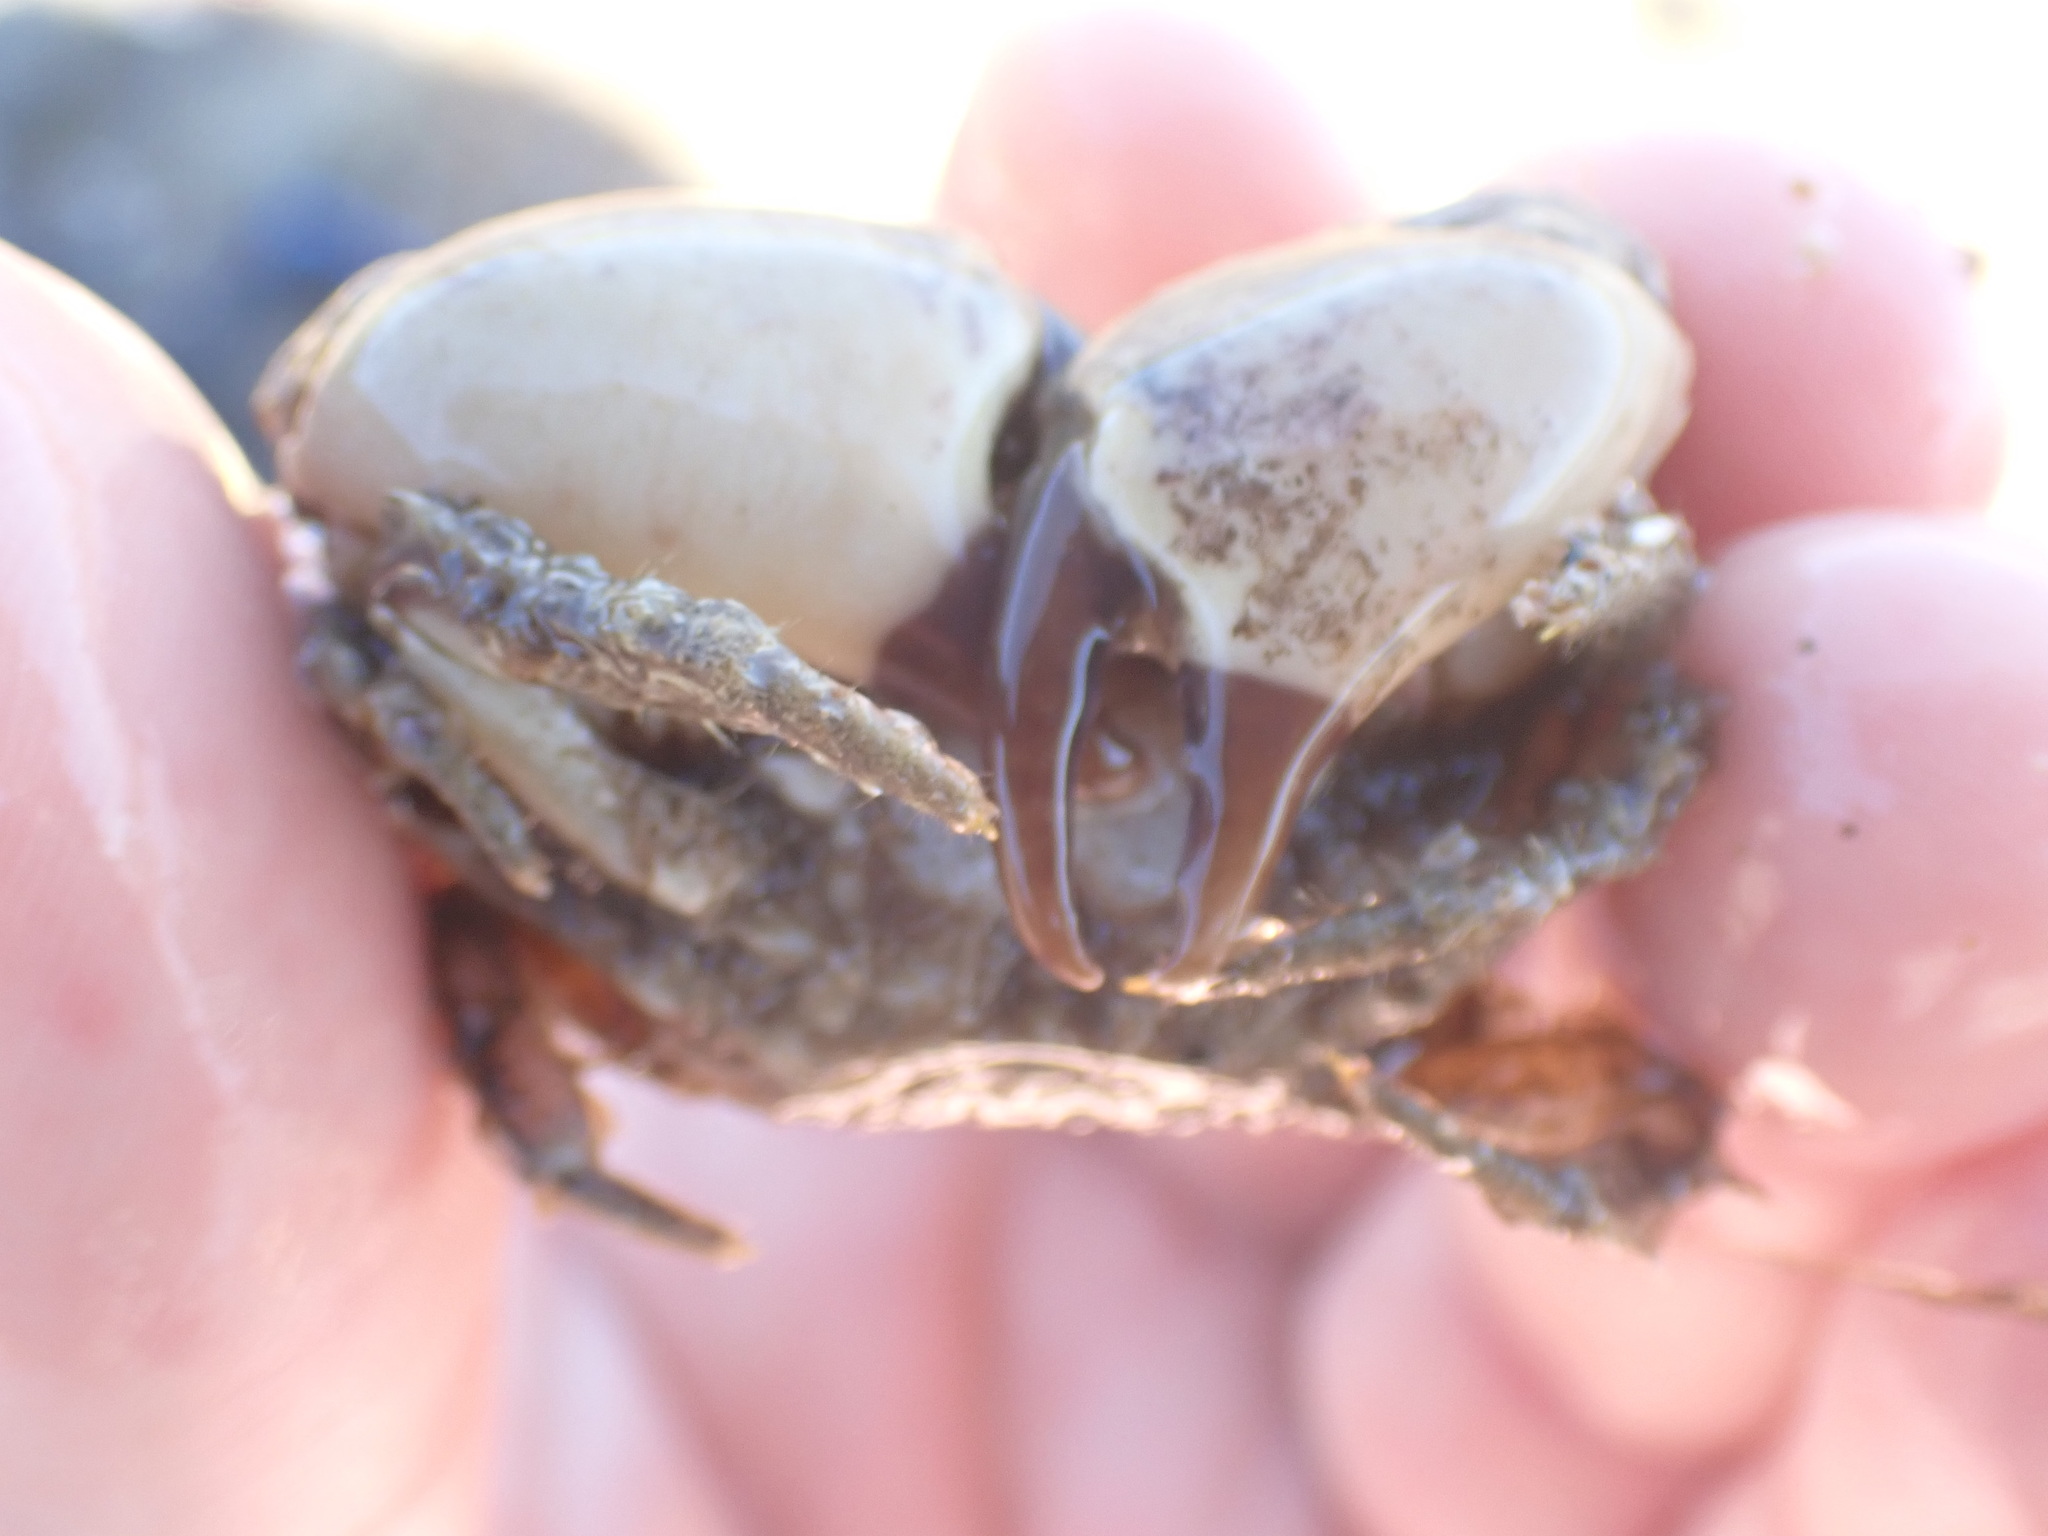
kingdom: Animalia
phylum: Arthropoda
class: Malacostraca
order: Decapoda
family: Pilumnidae
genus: Pilumnopeus
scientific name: Pilumnopeus serratifrons
